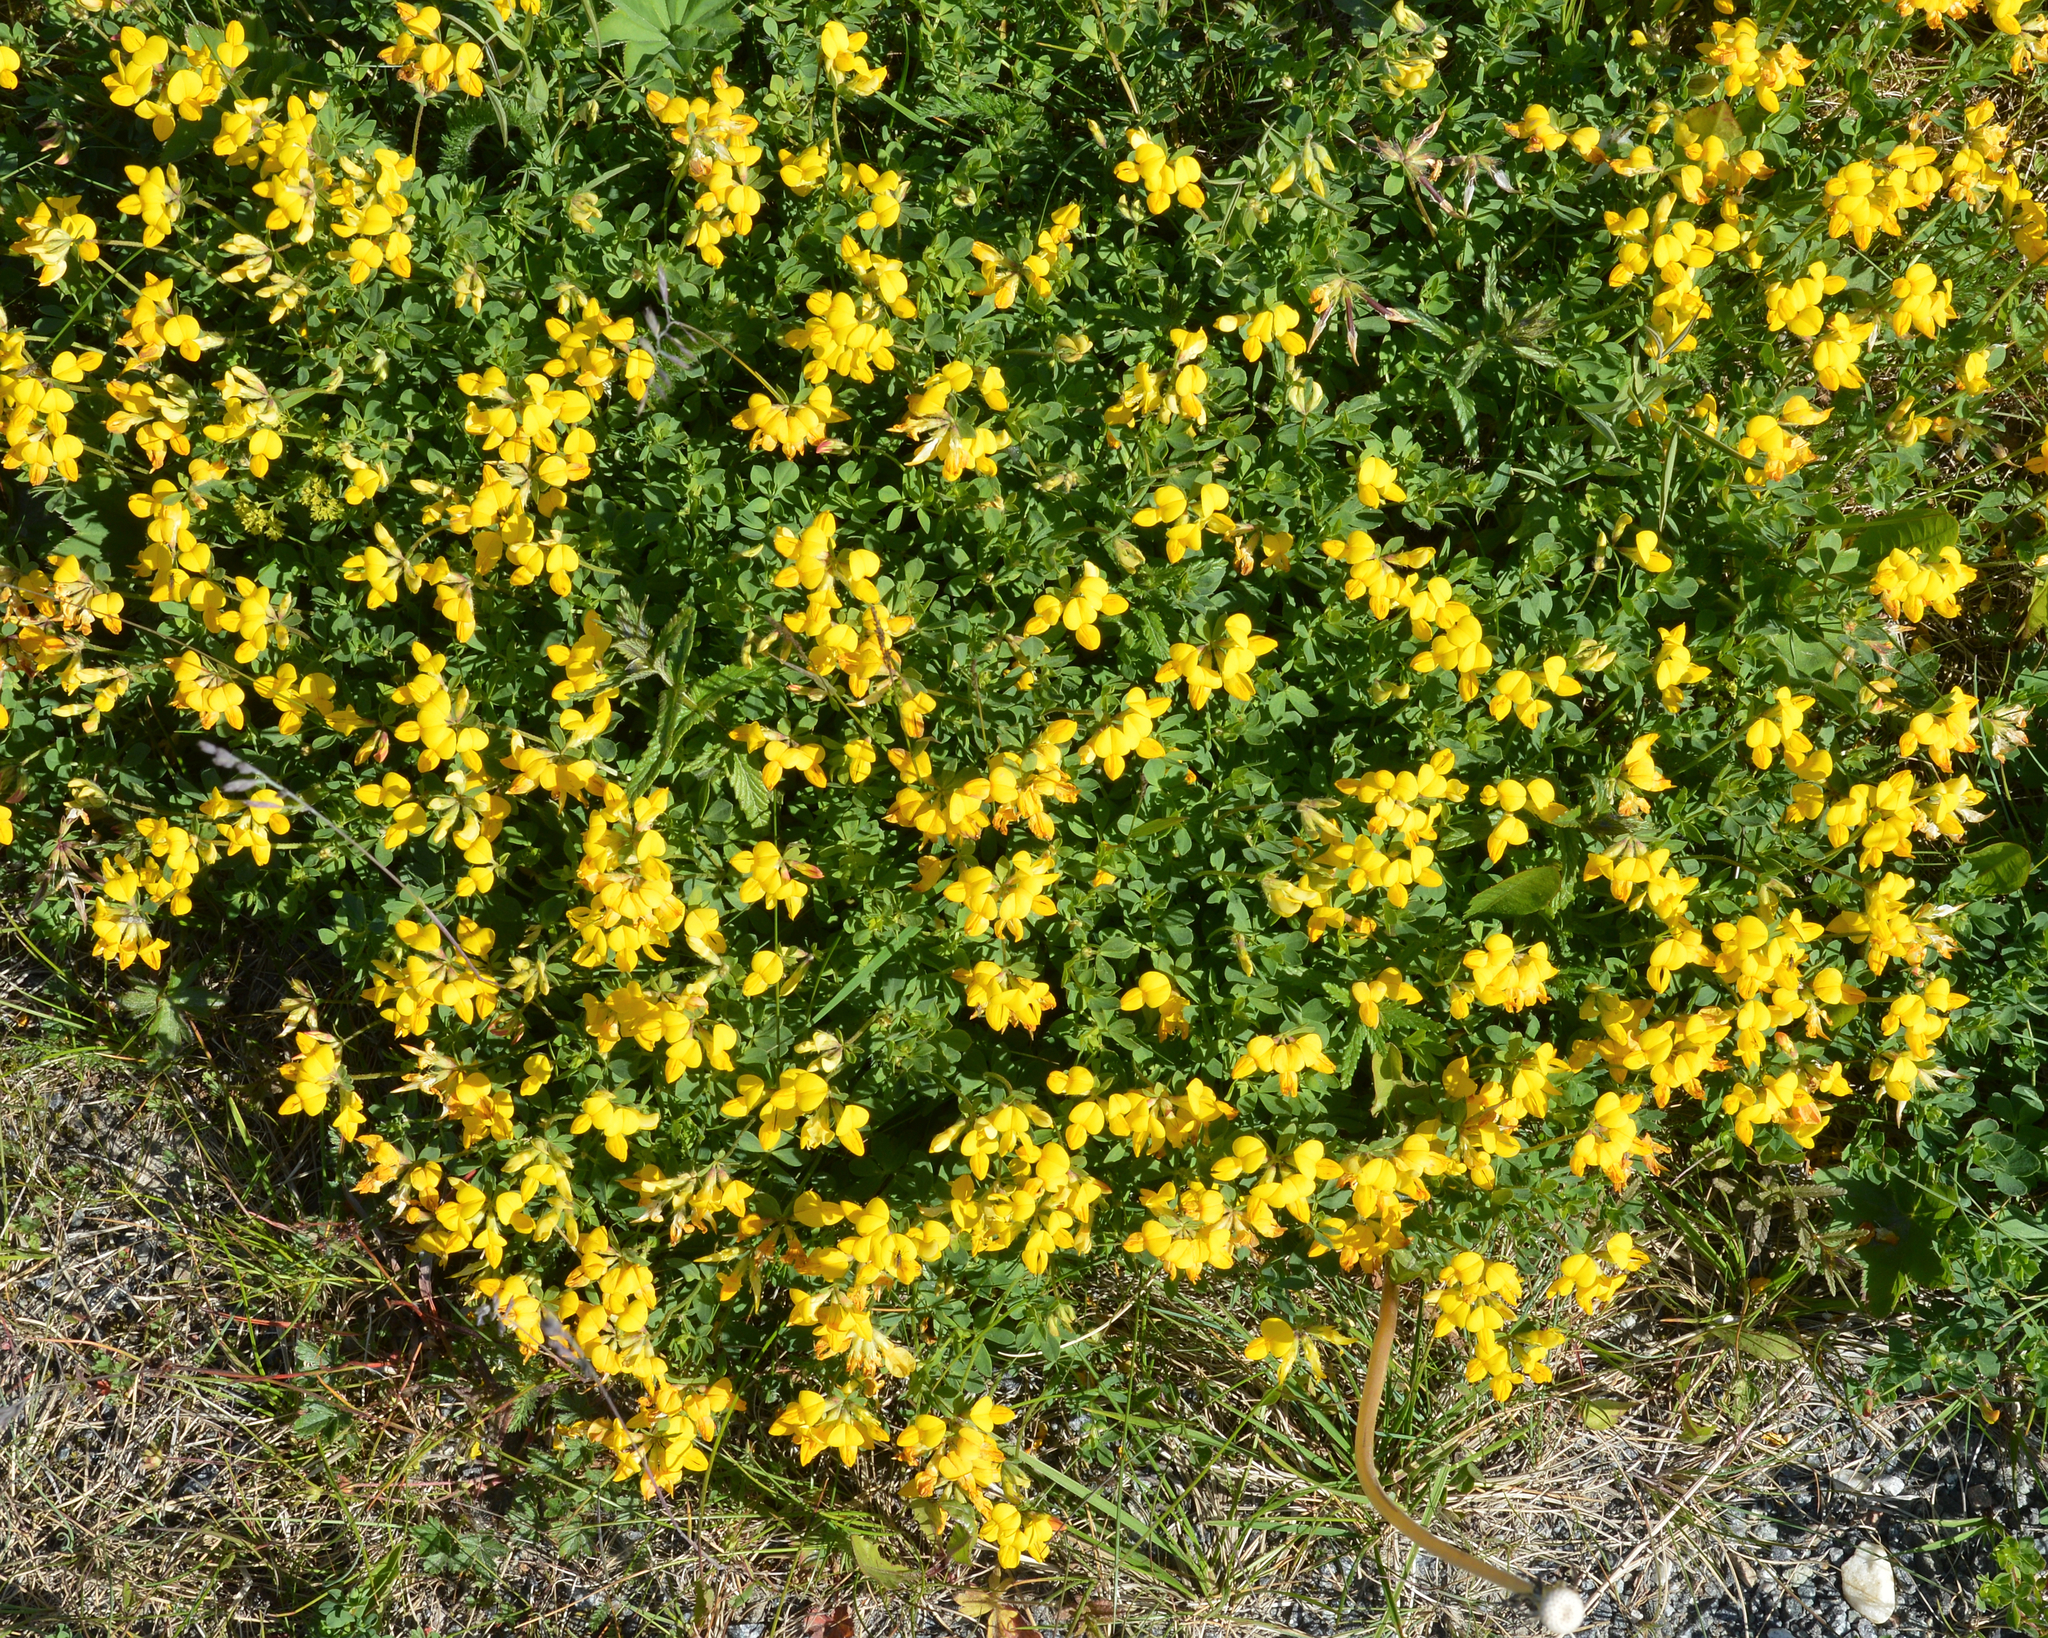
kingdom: Plantae
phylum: Tracheophyta
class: Magnoliopsida
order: Fabales
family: Fabaceae
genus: Lotus
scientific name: Lotus corniculatus
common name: Common bird's-foot-trefoil
